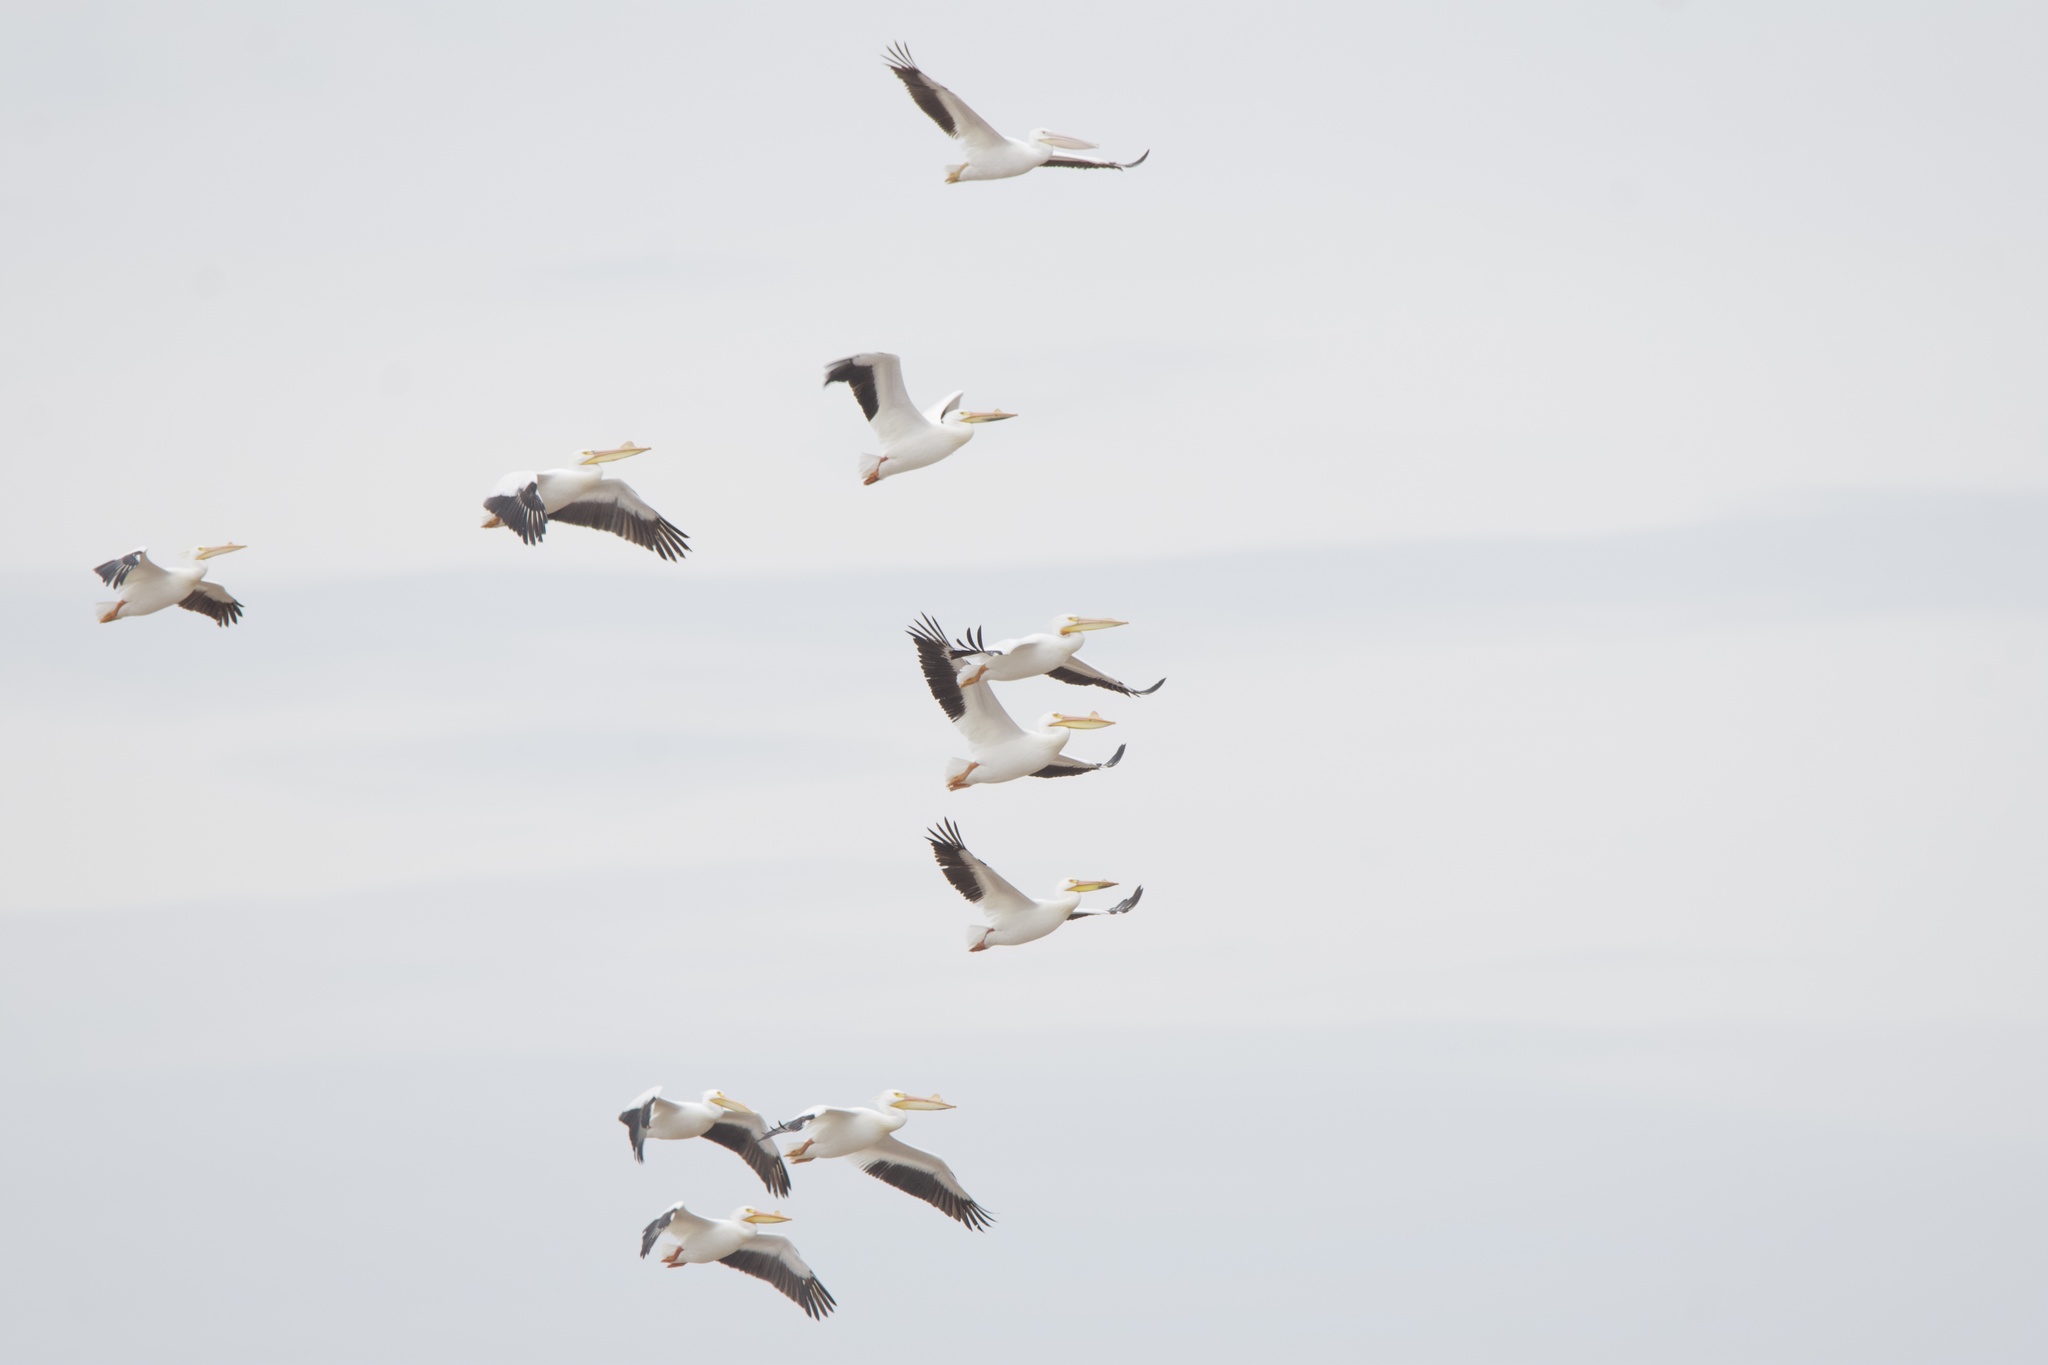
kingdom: Animalia
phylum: Chordata
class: Aves
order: Pelecaniformes
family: Pelecanidae
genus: Pelecanus
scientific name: Pelecanus erythrorhynchos
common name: American white pelican
